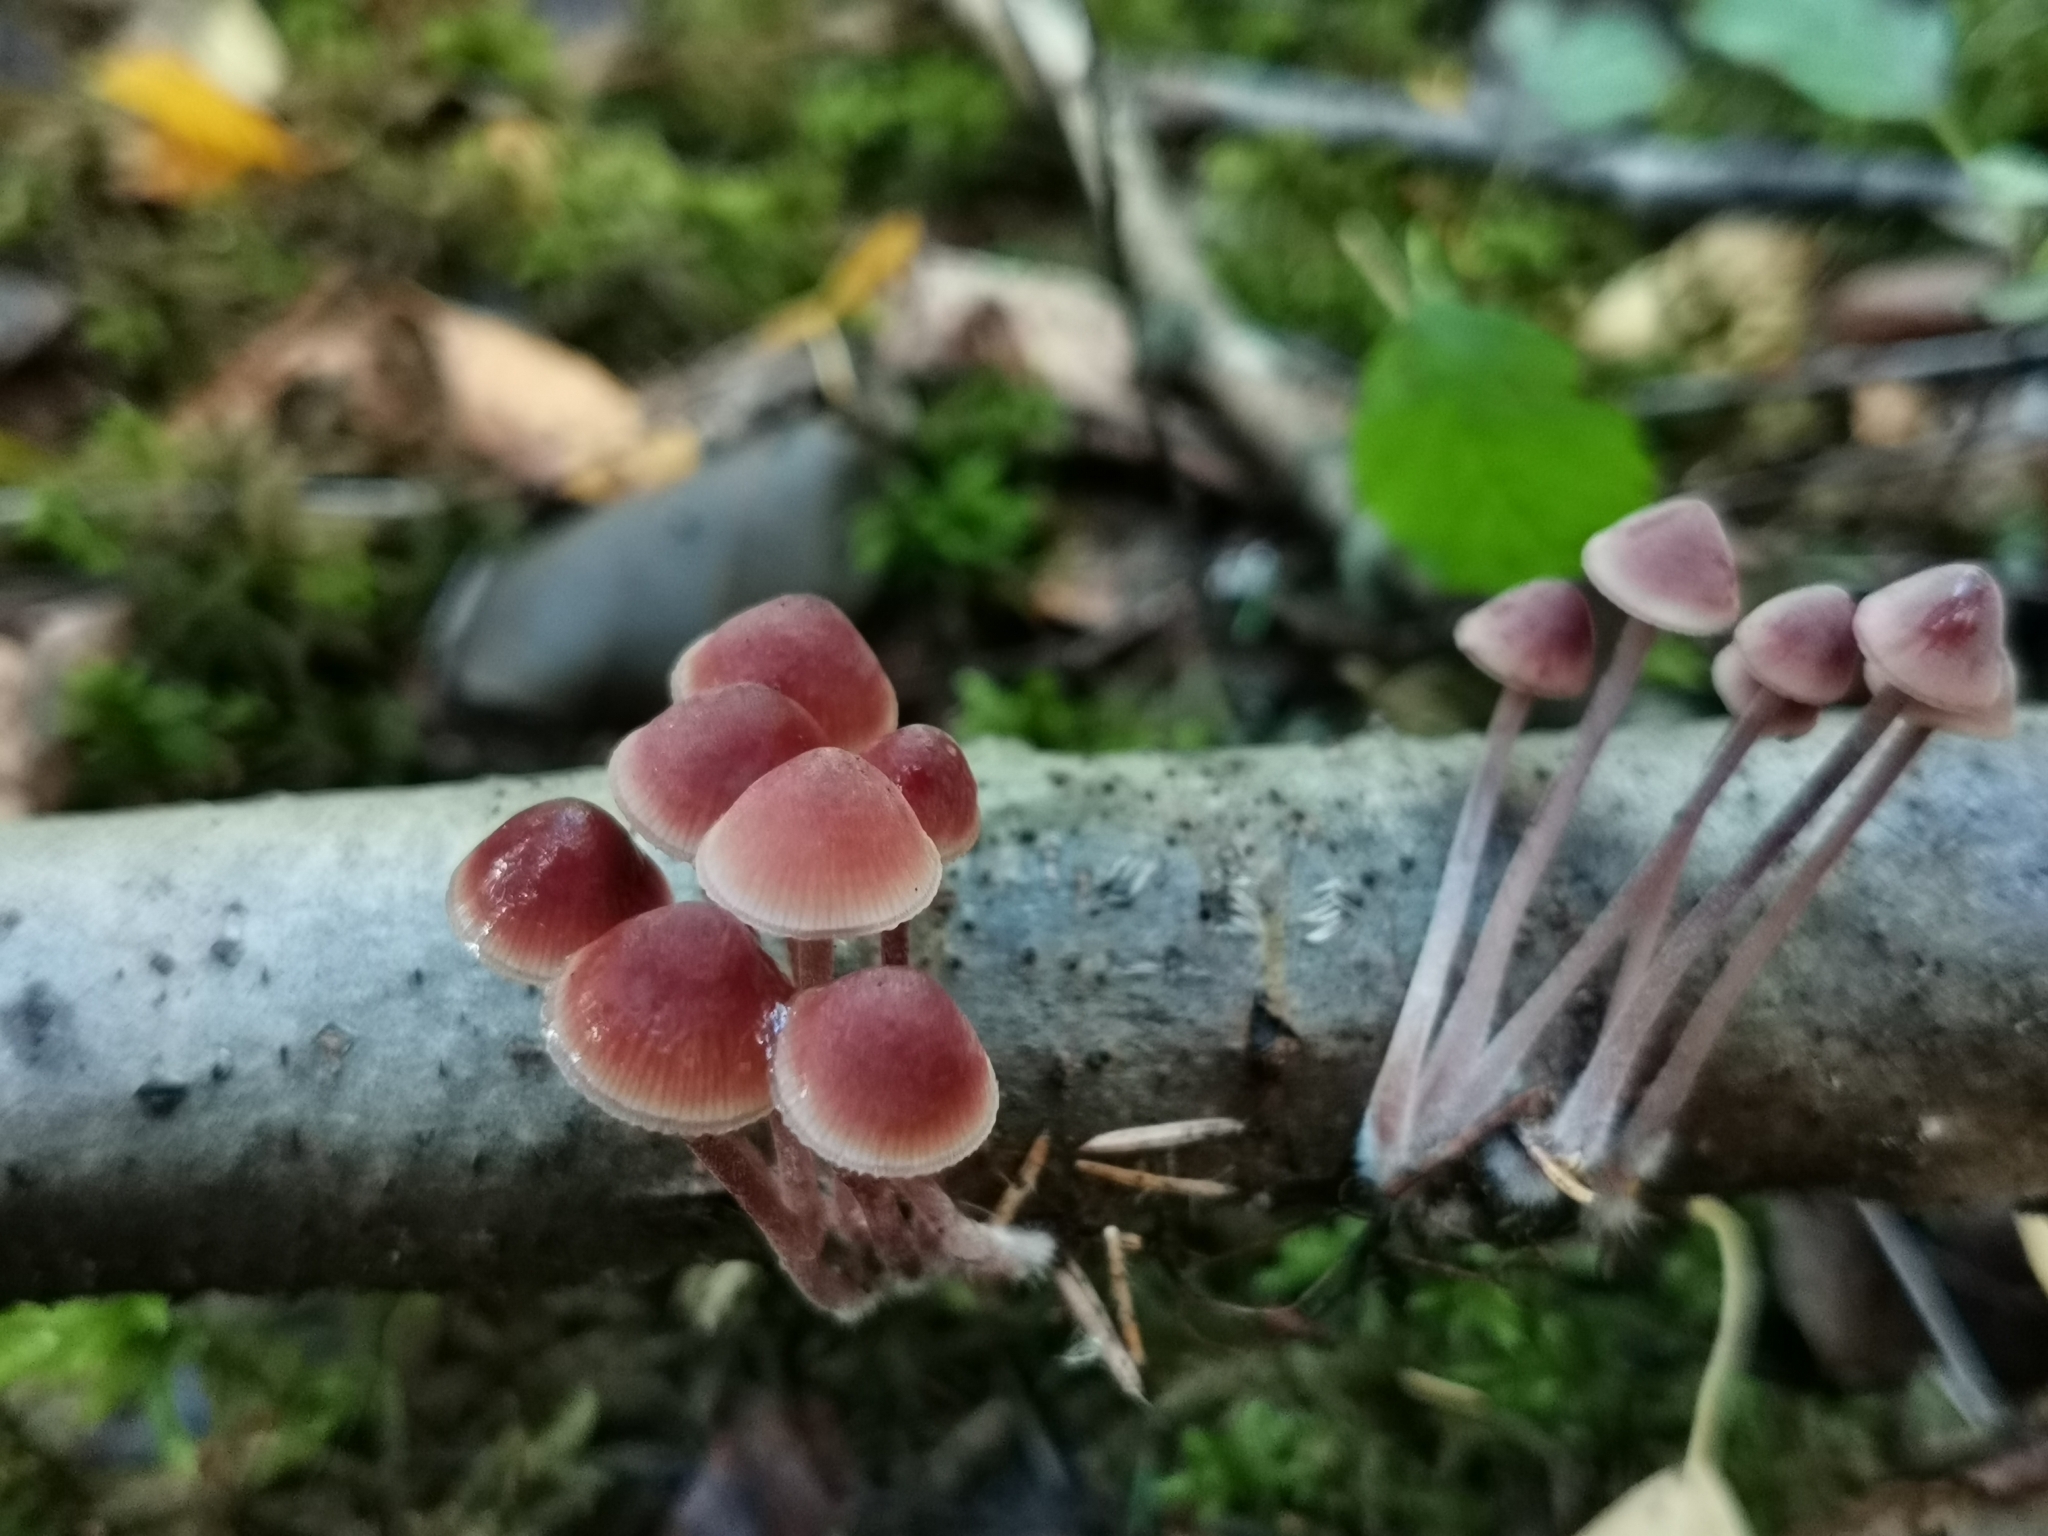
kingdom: Fungi
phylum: Basidiomycota
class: Agaricomycetes
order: Agaricales
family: Mycenaceae
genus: Mycena
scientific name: Mycena haematopus
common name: Burgundydrop bonnet
